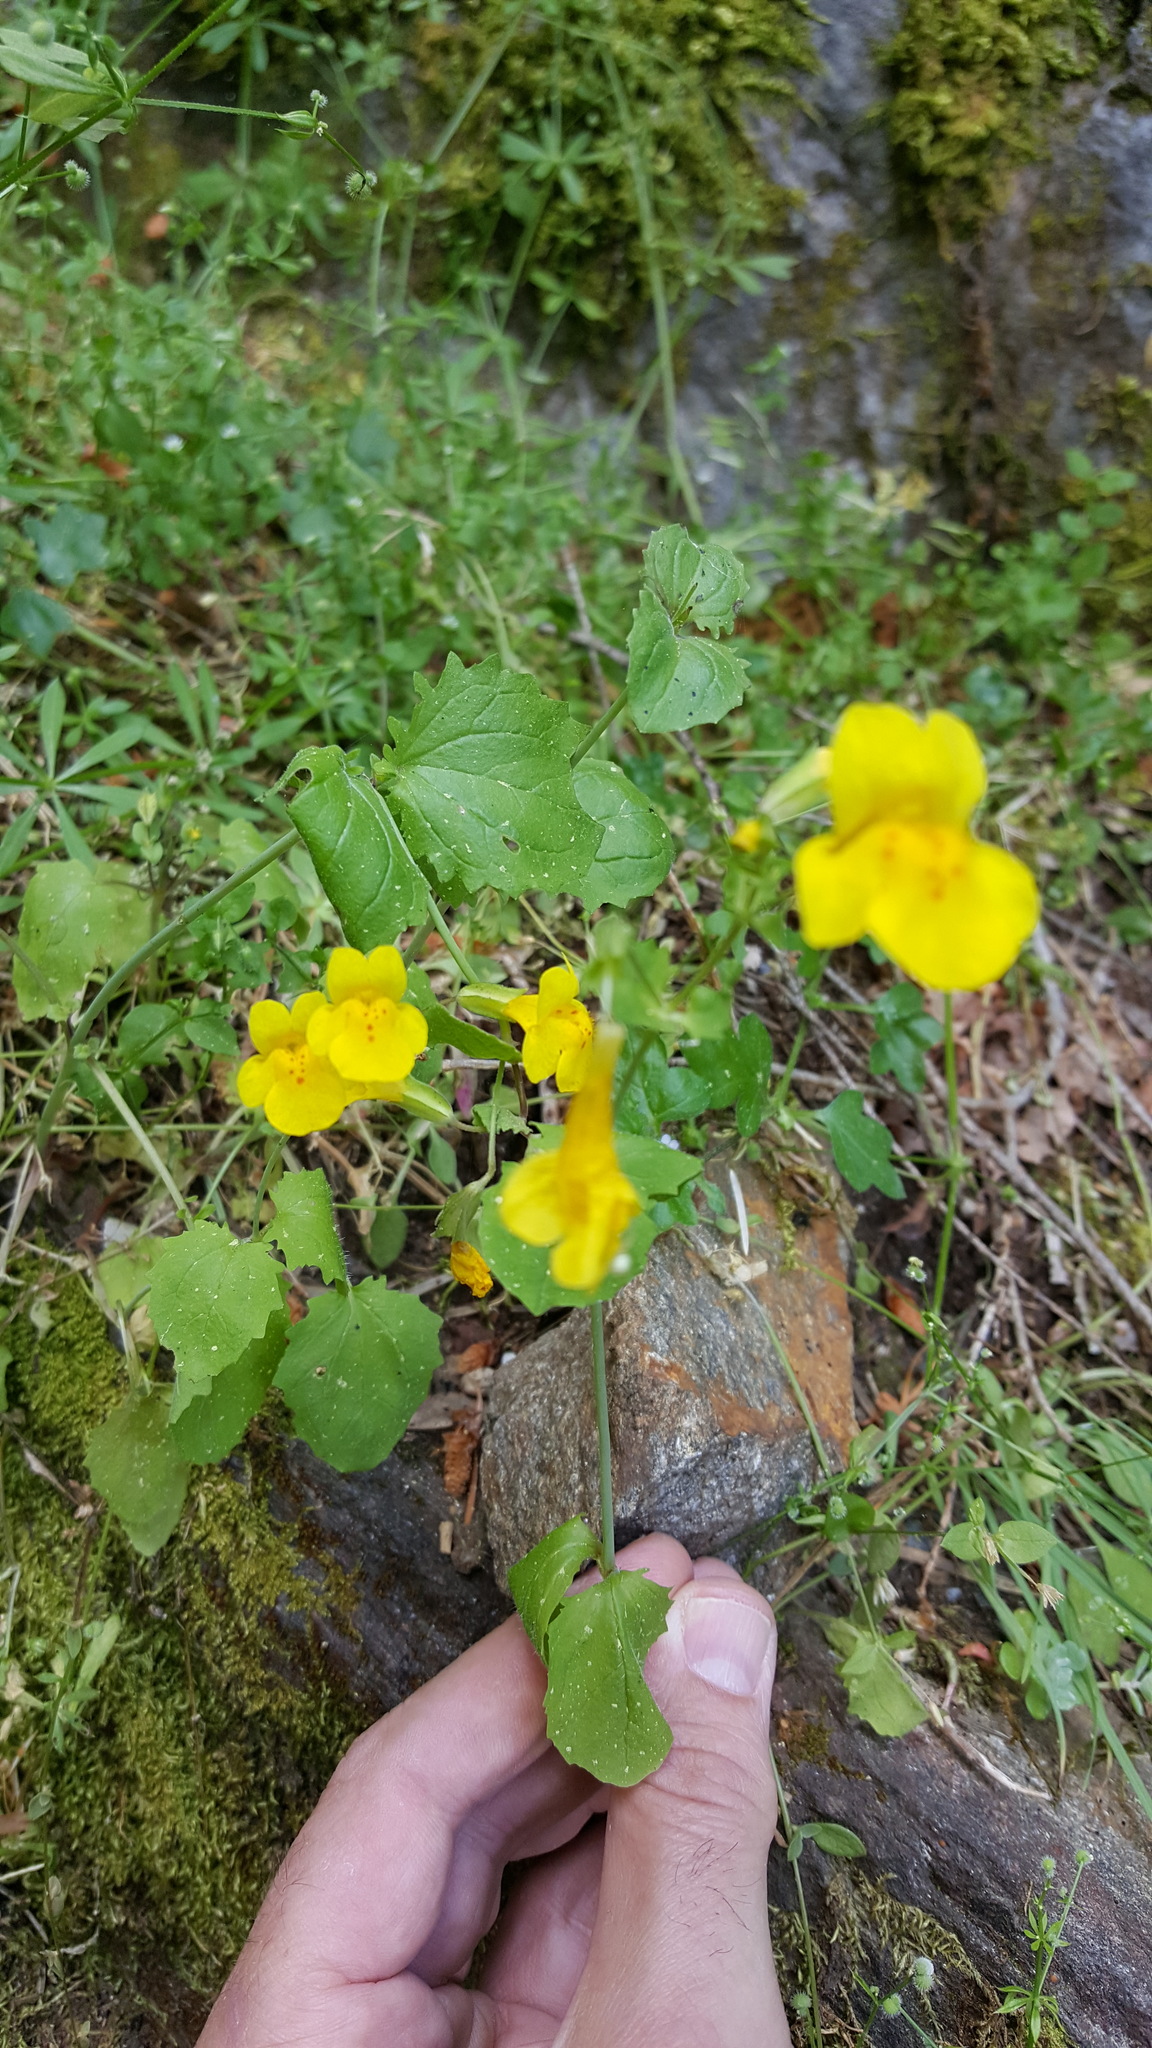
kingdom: Plantae
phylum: Tracheophyta
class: Magnoliopsida
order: Lamiales
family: Phrymaceae
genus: Erythranthe
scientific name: Erythranthe guttata
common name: Monkeyflower
